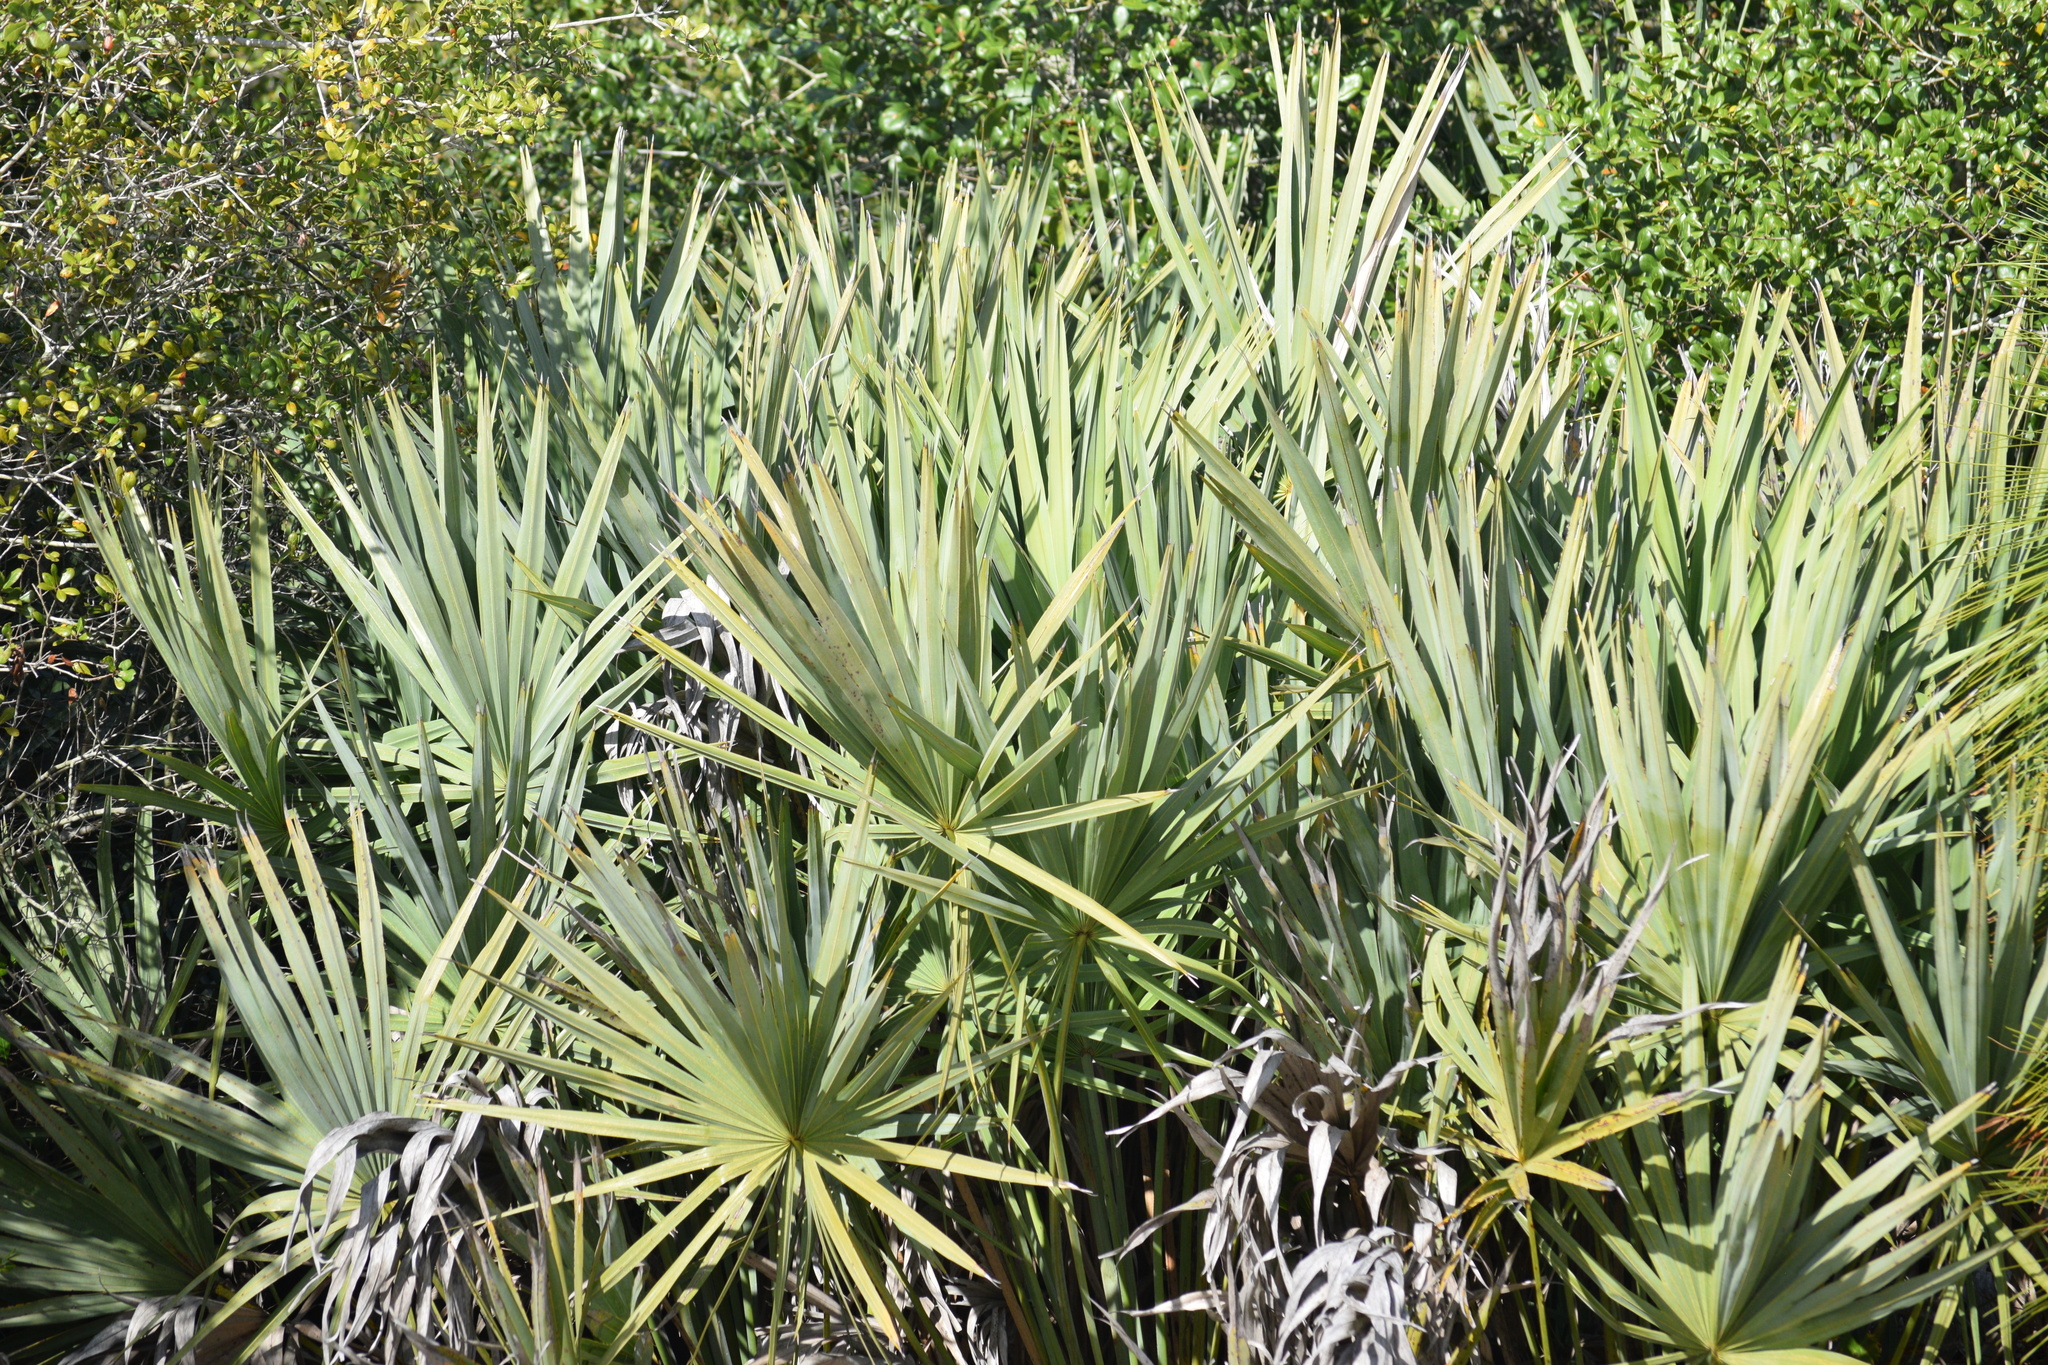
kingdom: Plantae
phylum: Tracheophyta
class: Liliopsida
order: Arecales
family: Arecaceae
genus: Serenoa
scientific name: Serenoa repens
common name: Saw-palmetto
